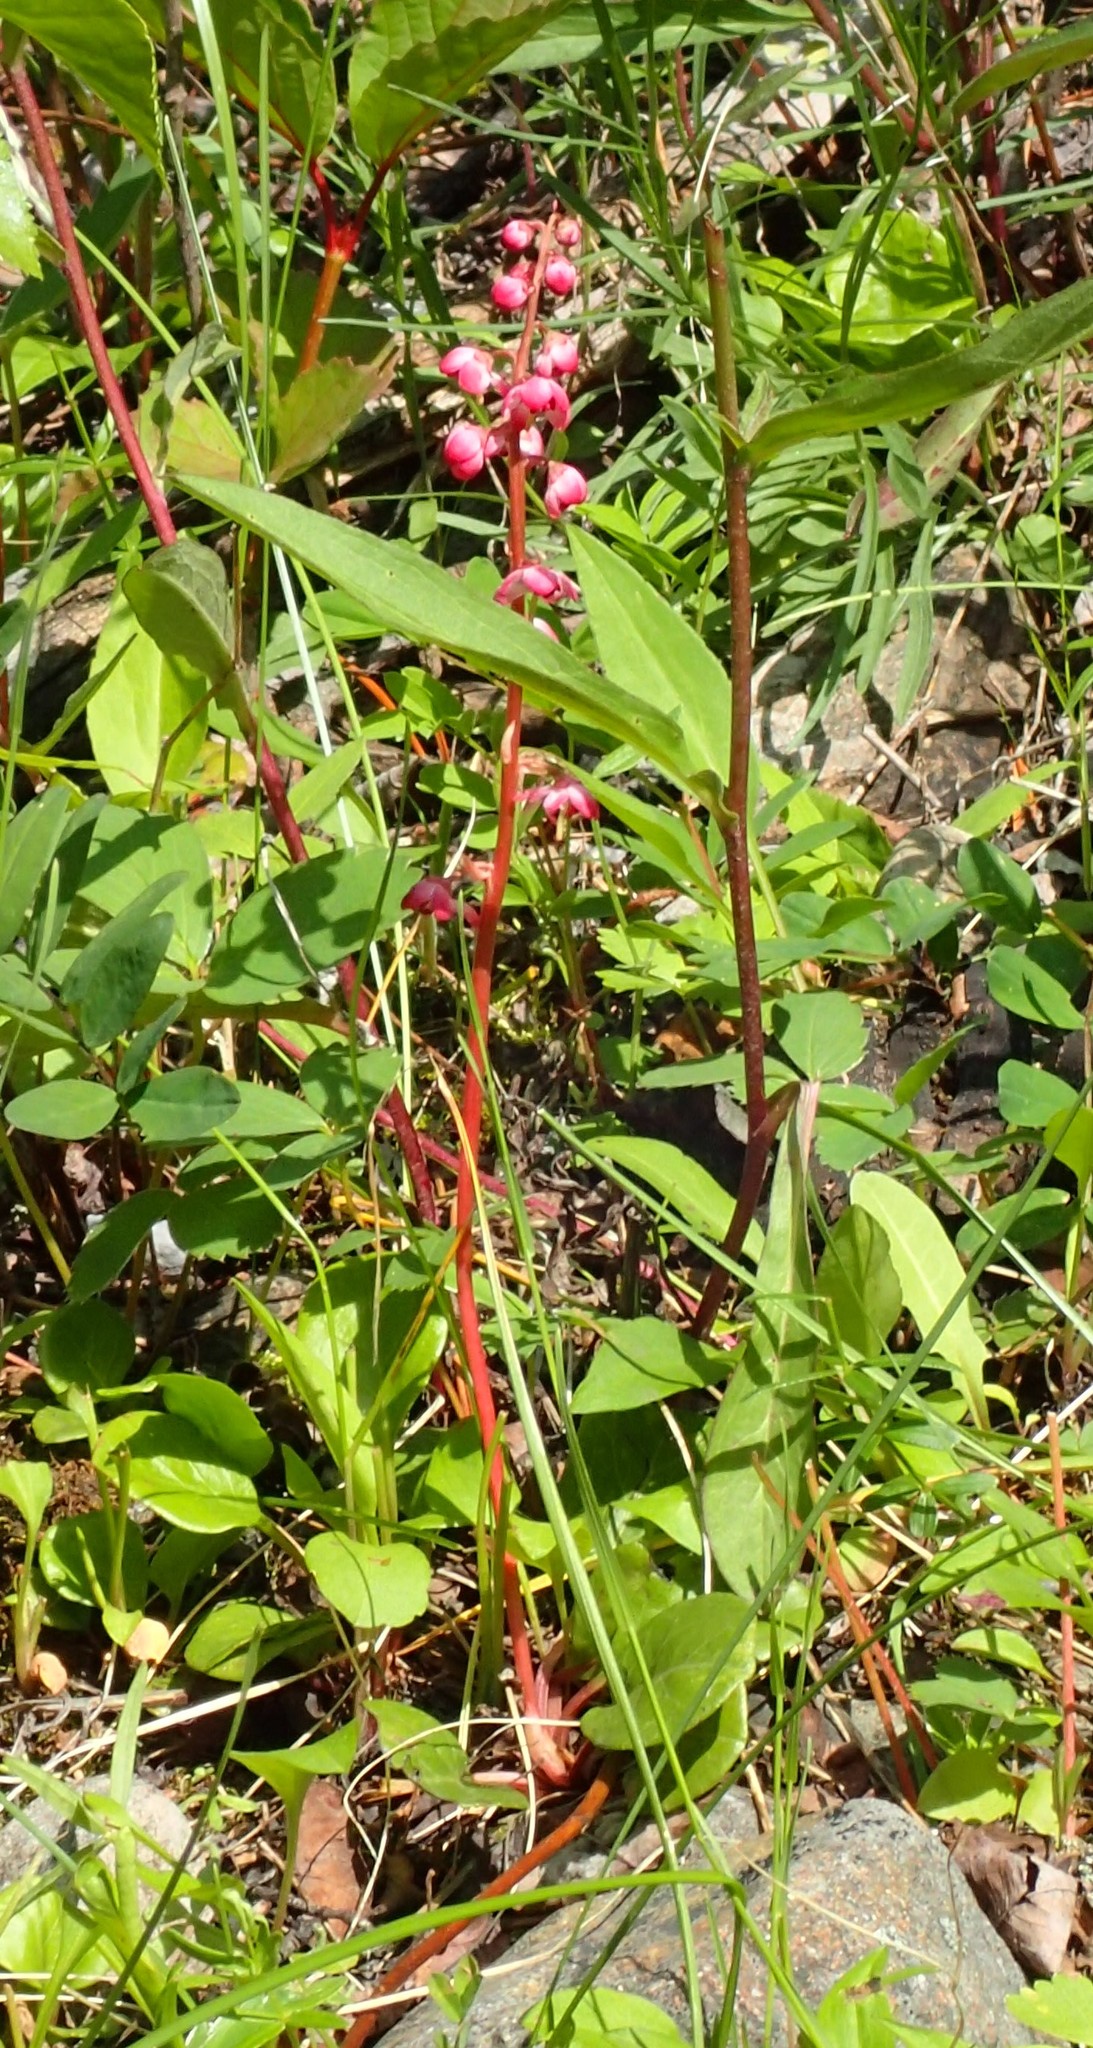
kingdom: Plantae
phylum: Tracheophyta
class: Magnoliopsida
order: Ericales
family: Ericaceae
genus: Pyrola
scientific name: Pyrola asarifolia
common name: Bog wintergreen
